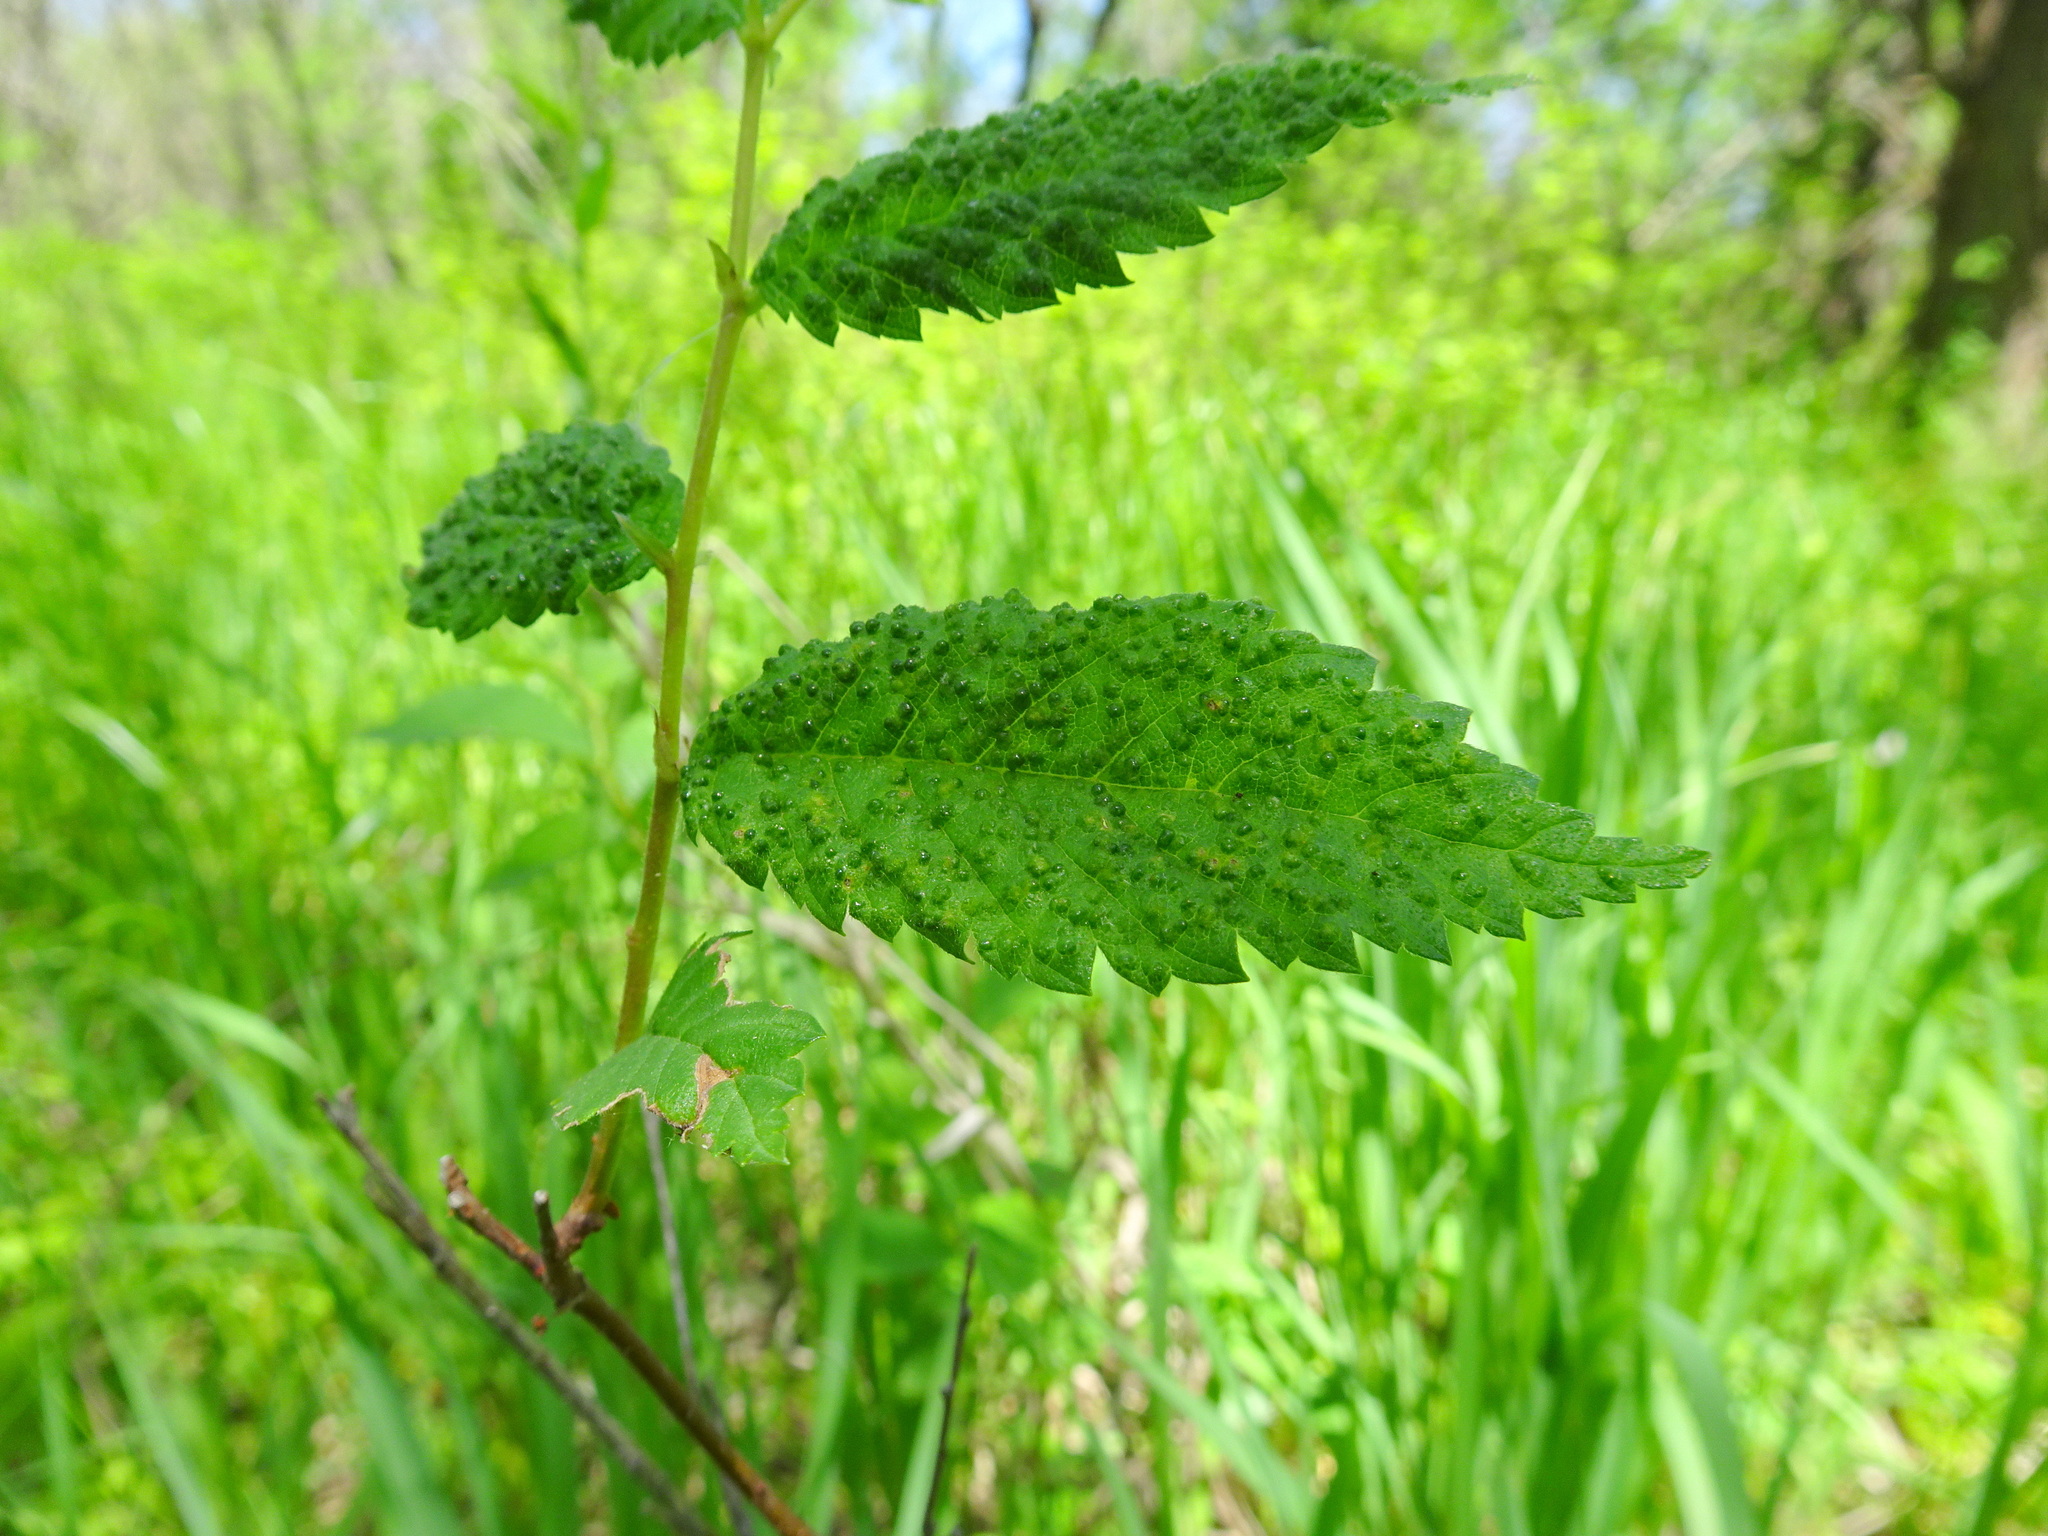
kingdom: Animalia
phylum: Arthropoda
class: Arachnida
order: Trombidiformes
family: Eriophyidae
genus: Aceria
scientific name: Aceria brevipunctata
